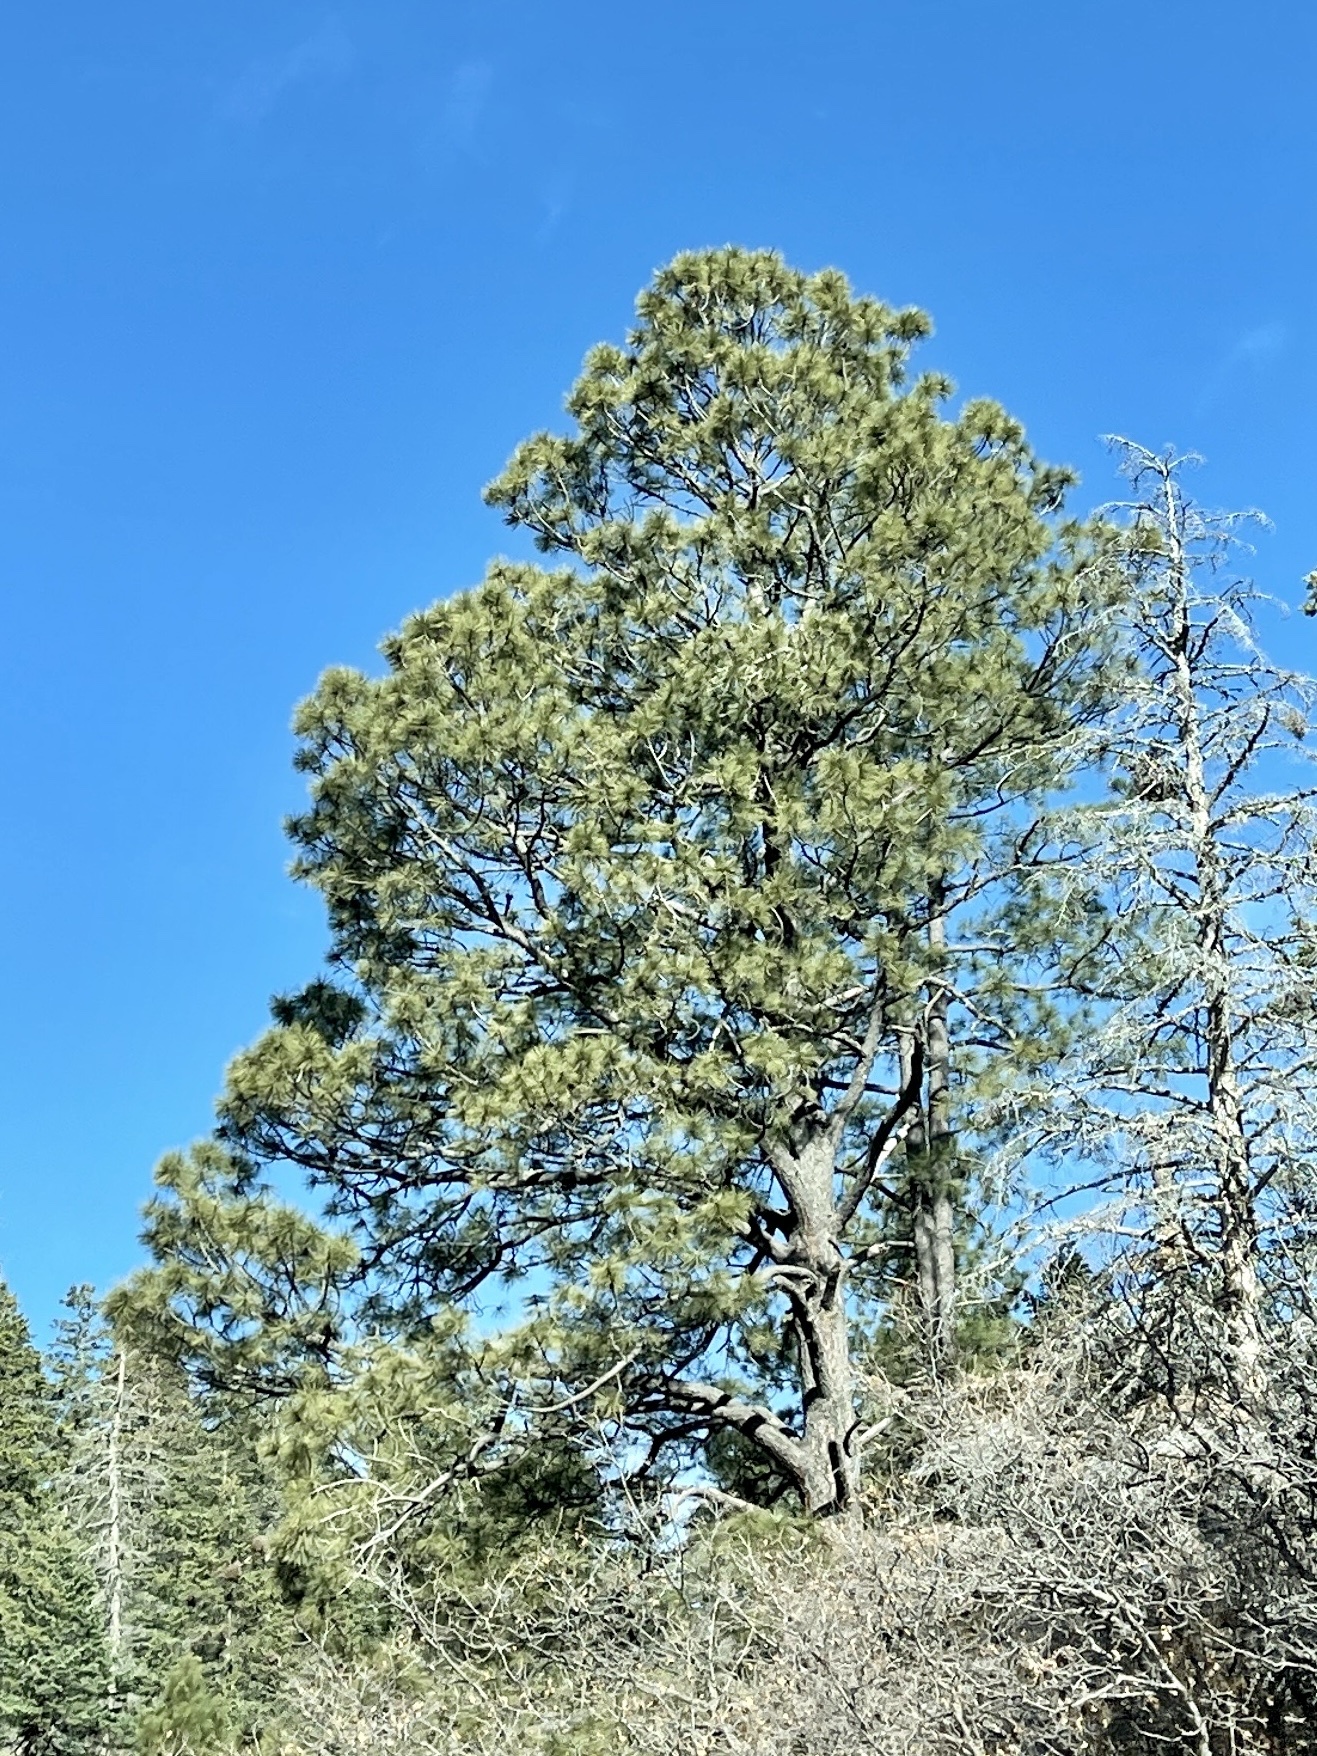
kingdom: Plantae
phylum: Tracheophyta
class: Pinopsida
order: Pinales
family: Pinaceae
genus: Pinus
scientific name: Pinus ponderosa
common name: Western yellow-pine
